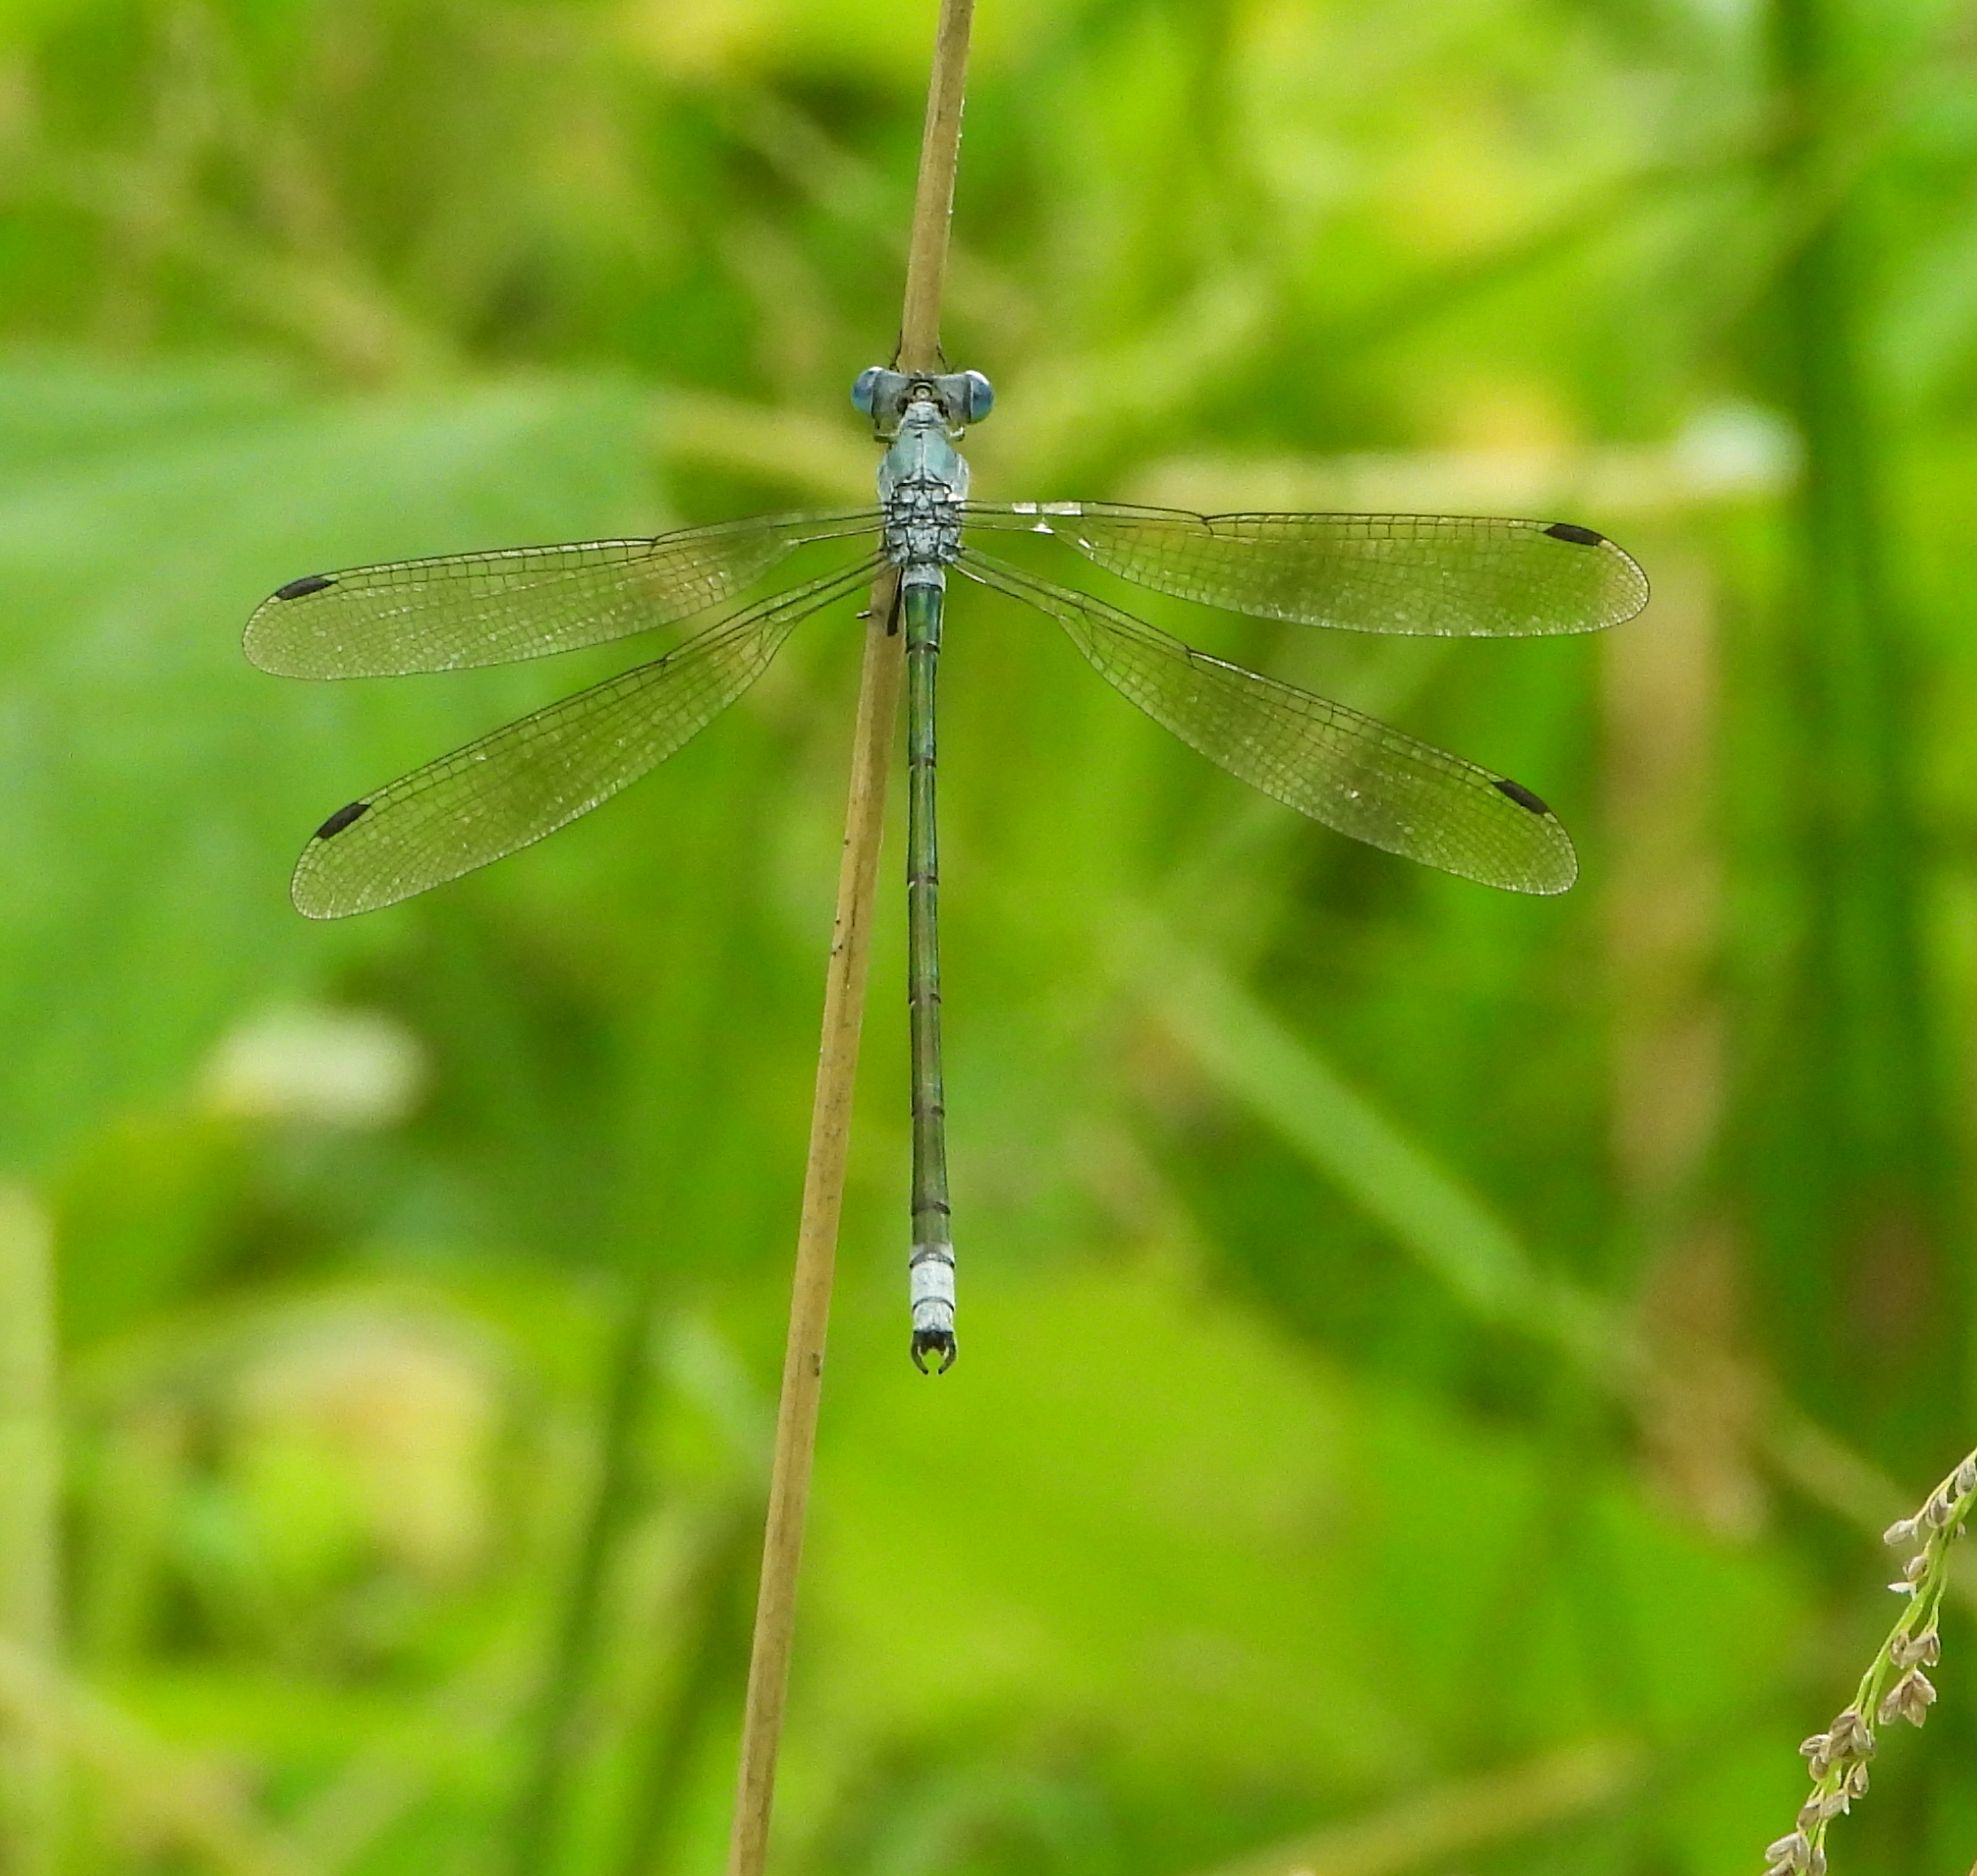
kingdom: Animalia
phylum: Arthropoda
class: Insecta
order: Odonata
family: Lestidae
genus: Lestes
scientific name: Lestes eurinus
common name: Amber-winged spreadwing
